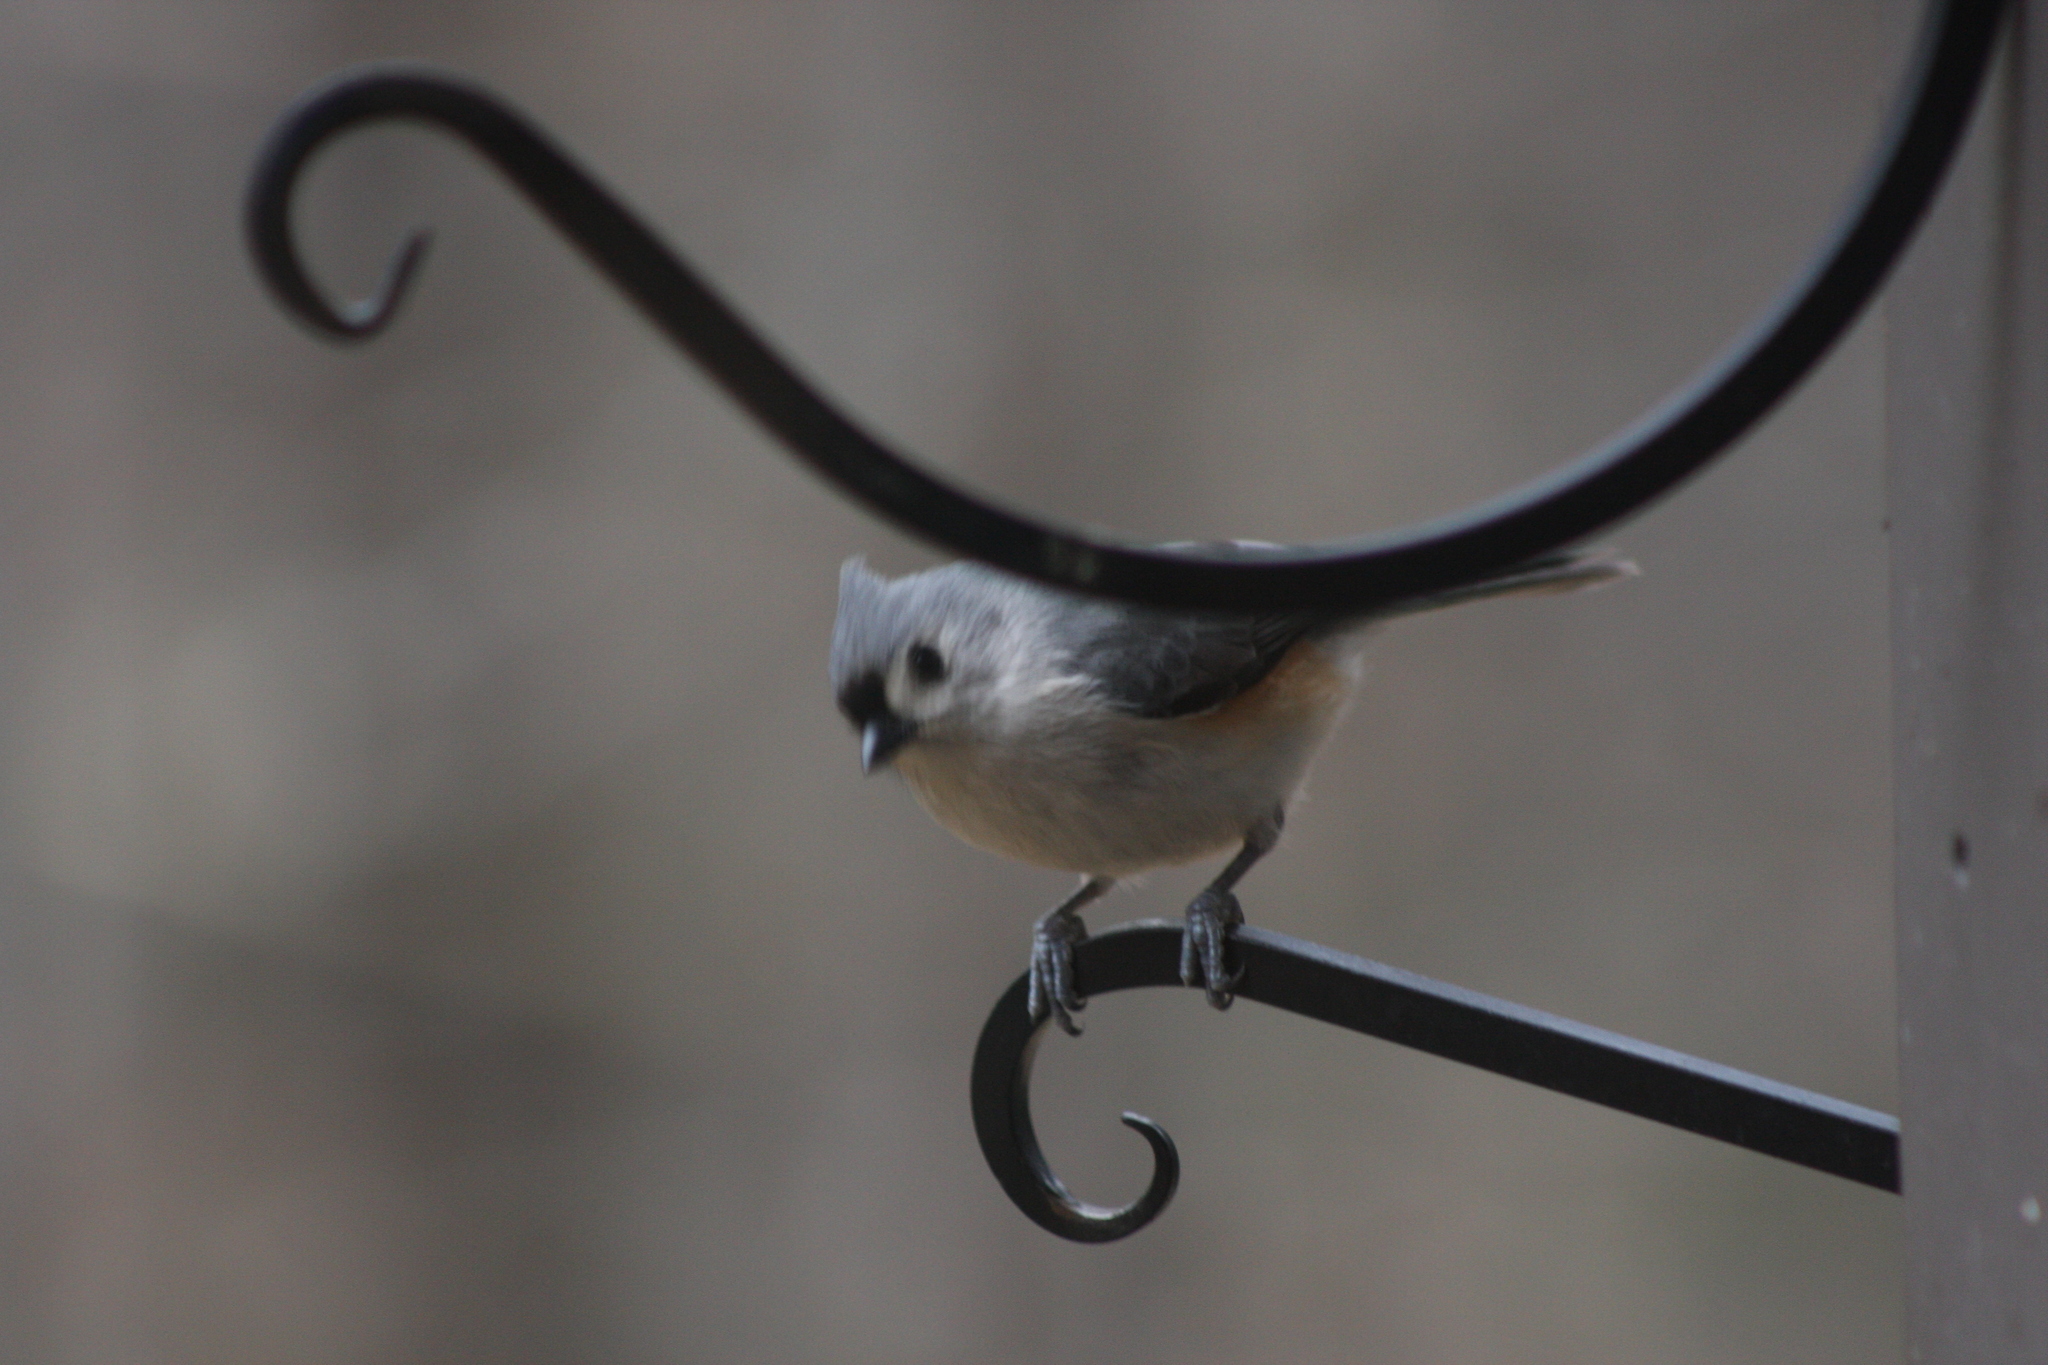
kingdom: Animalia
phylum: Chordata
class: Aves
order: Passeriformes
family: Paridae
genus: Baeolophus
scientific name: Baeolophus bicolor
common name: Tufted titmouse
